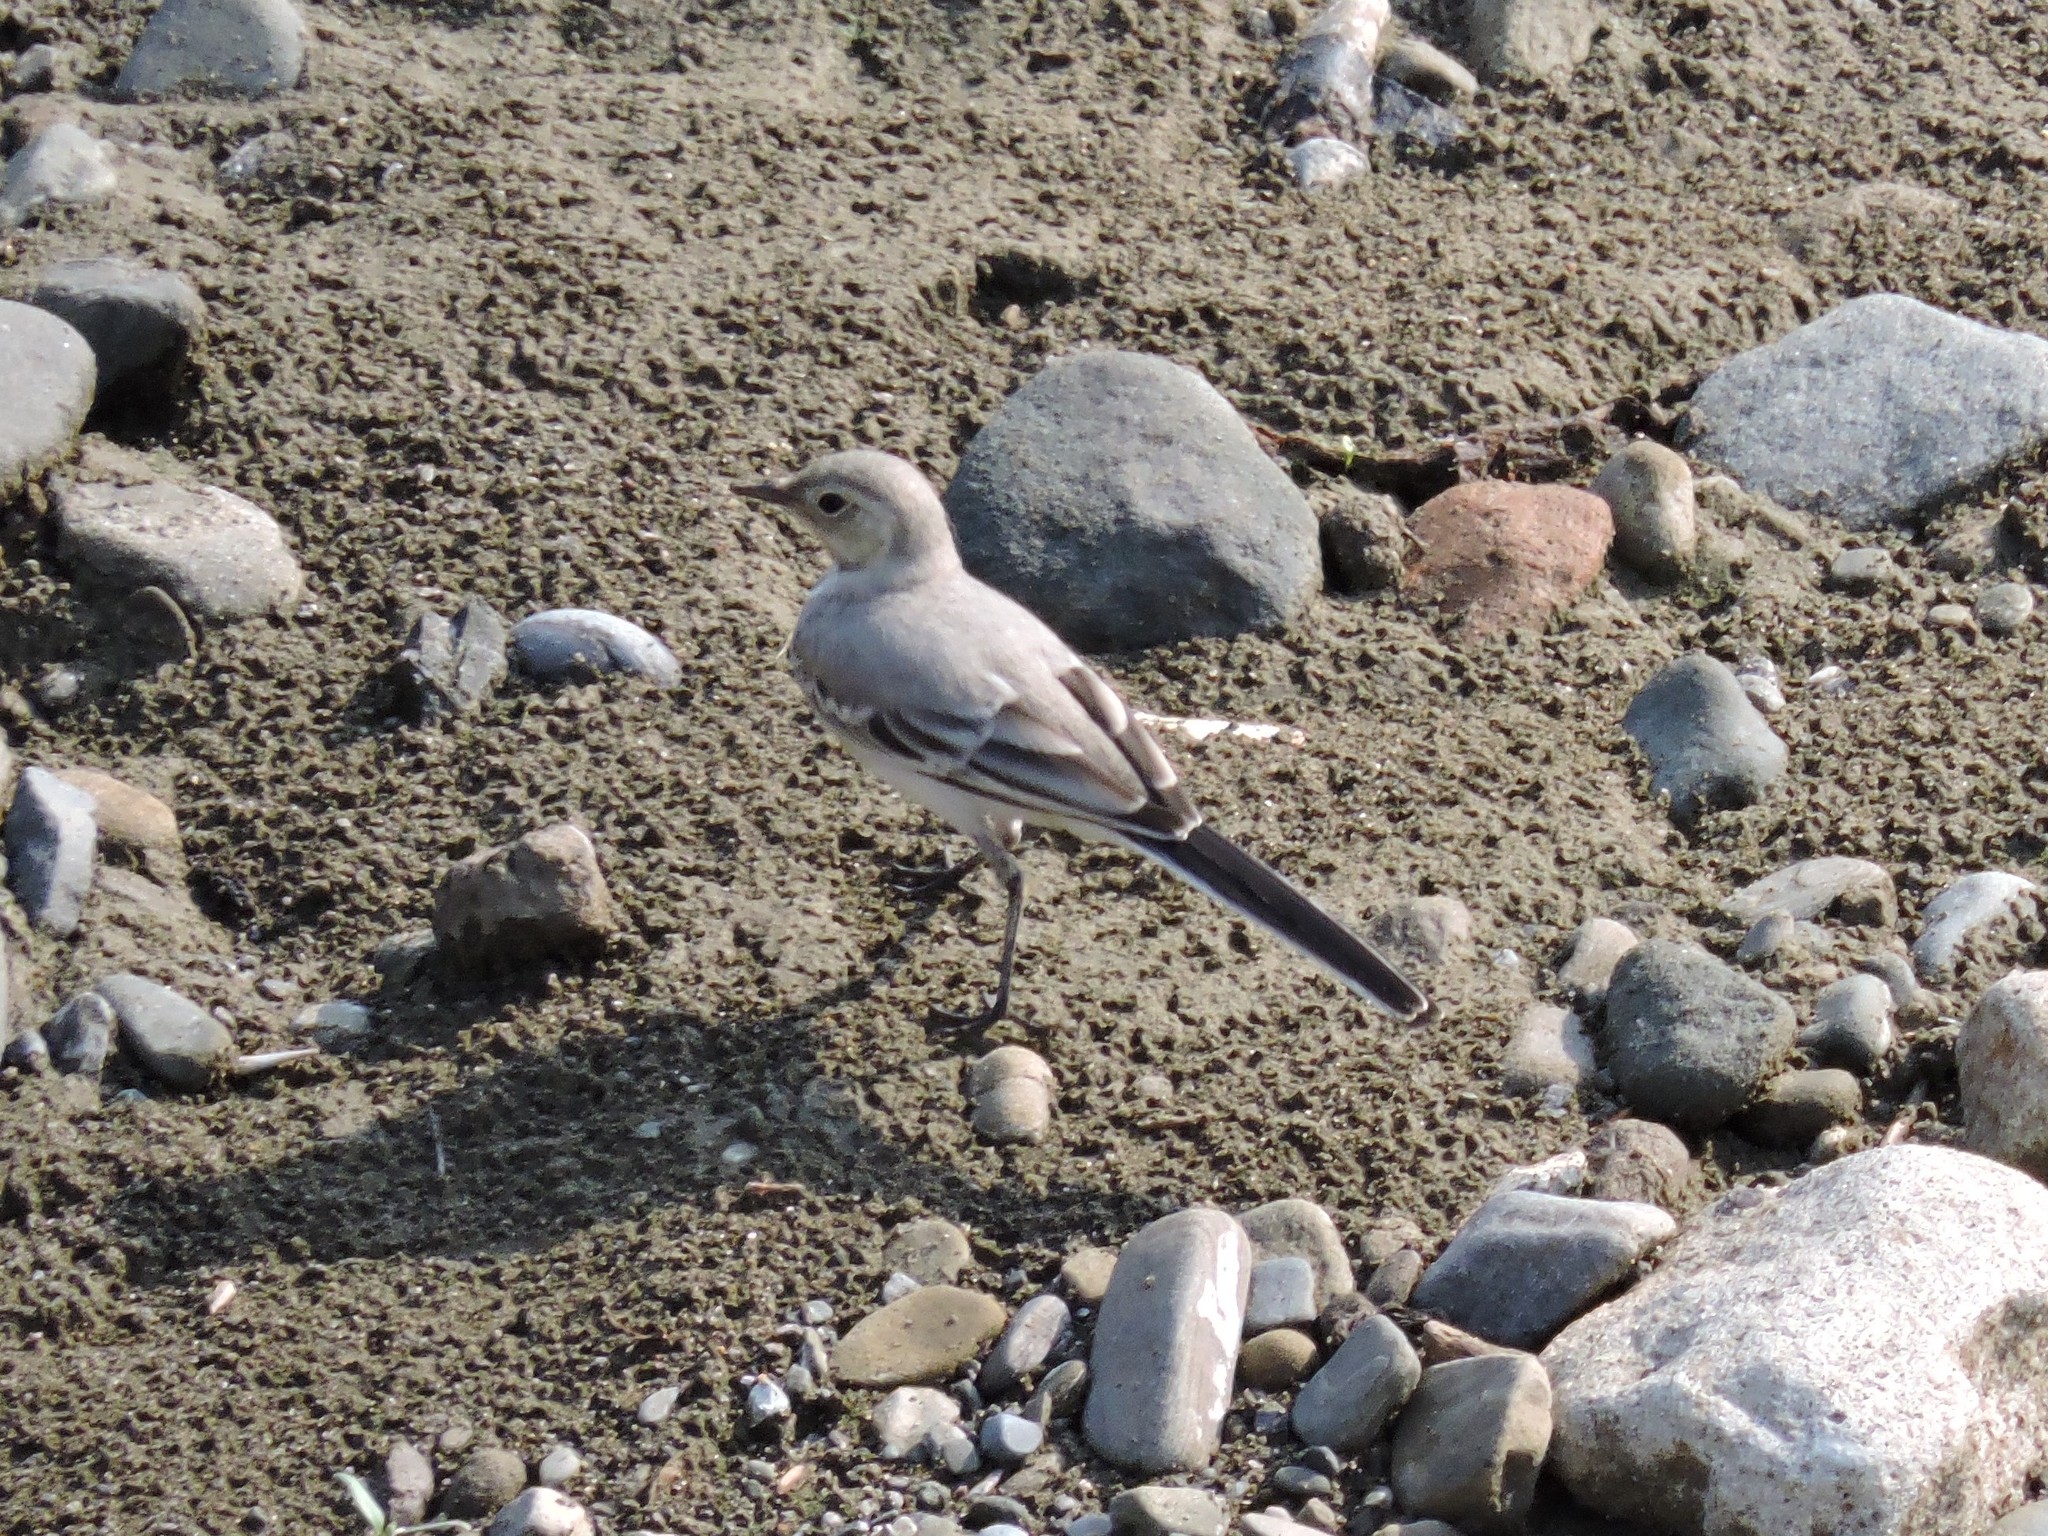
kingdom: Animalia
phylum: Chordata
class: Aves
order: Passeriformes
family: Motacillidae
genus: Motacilla
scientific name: Motacilla alba
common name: White wagtail
